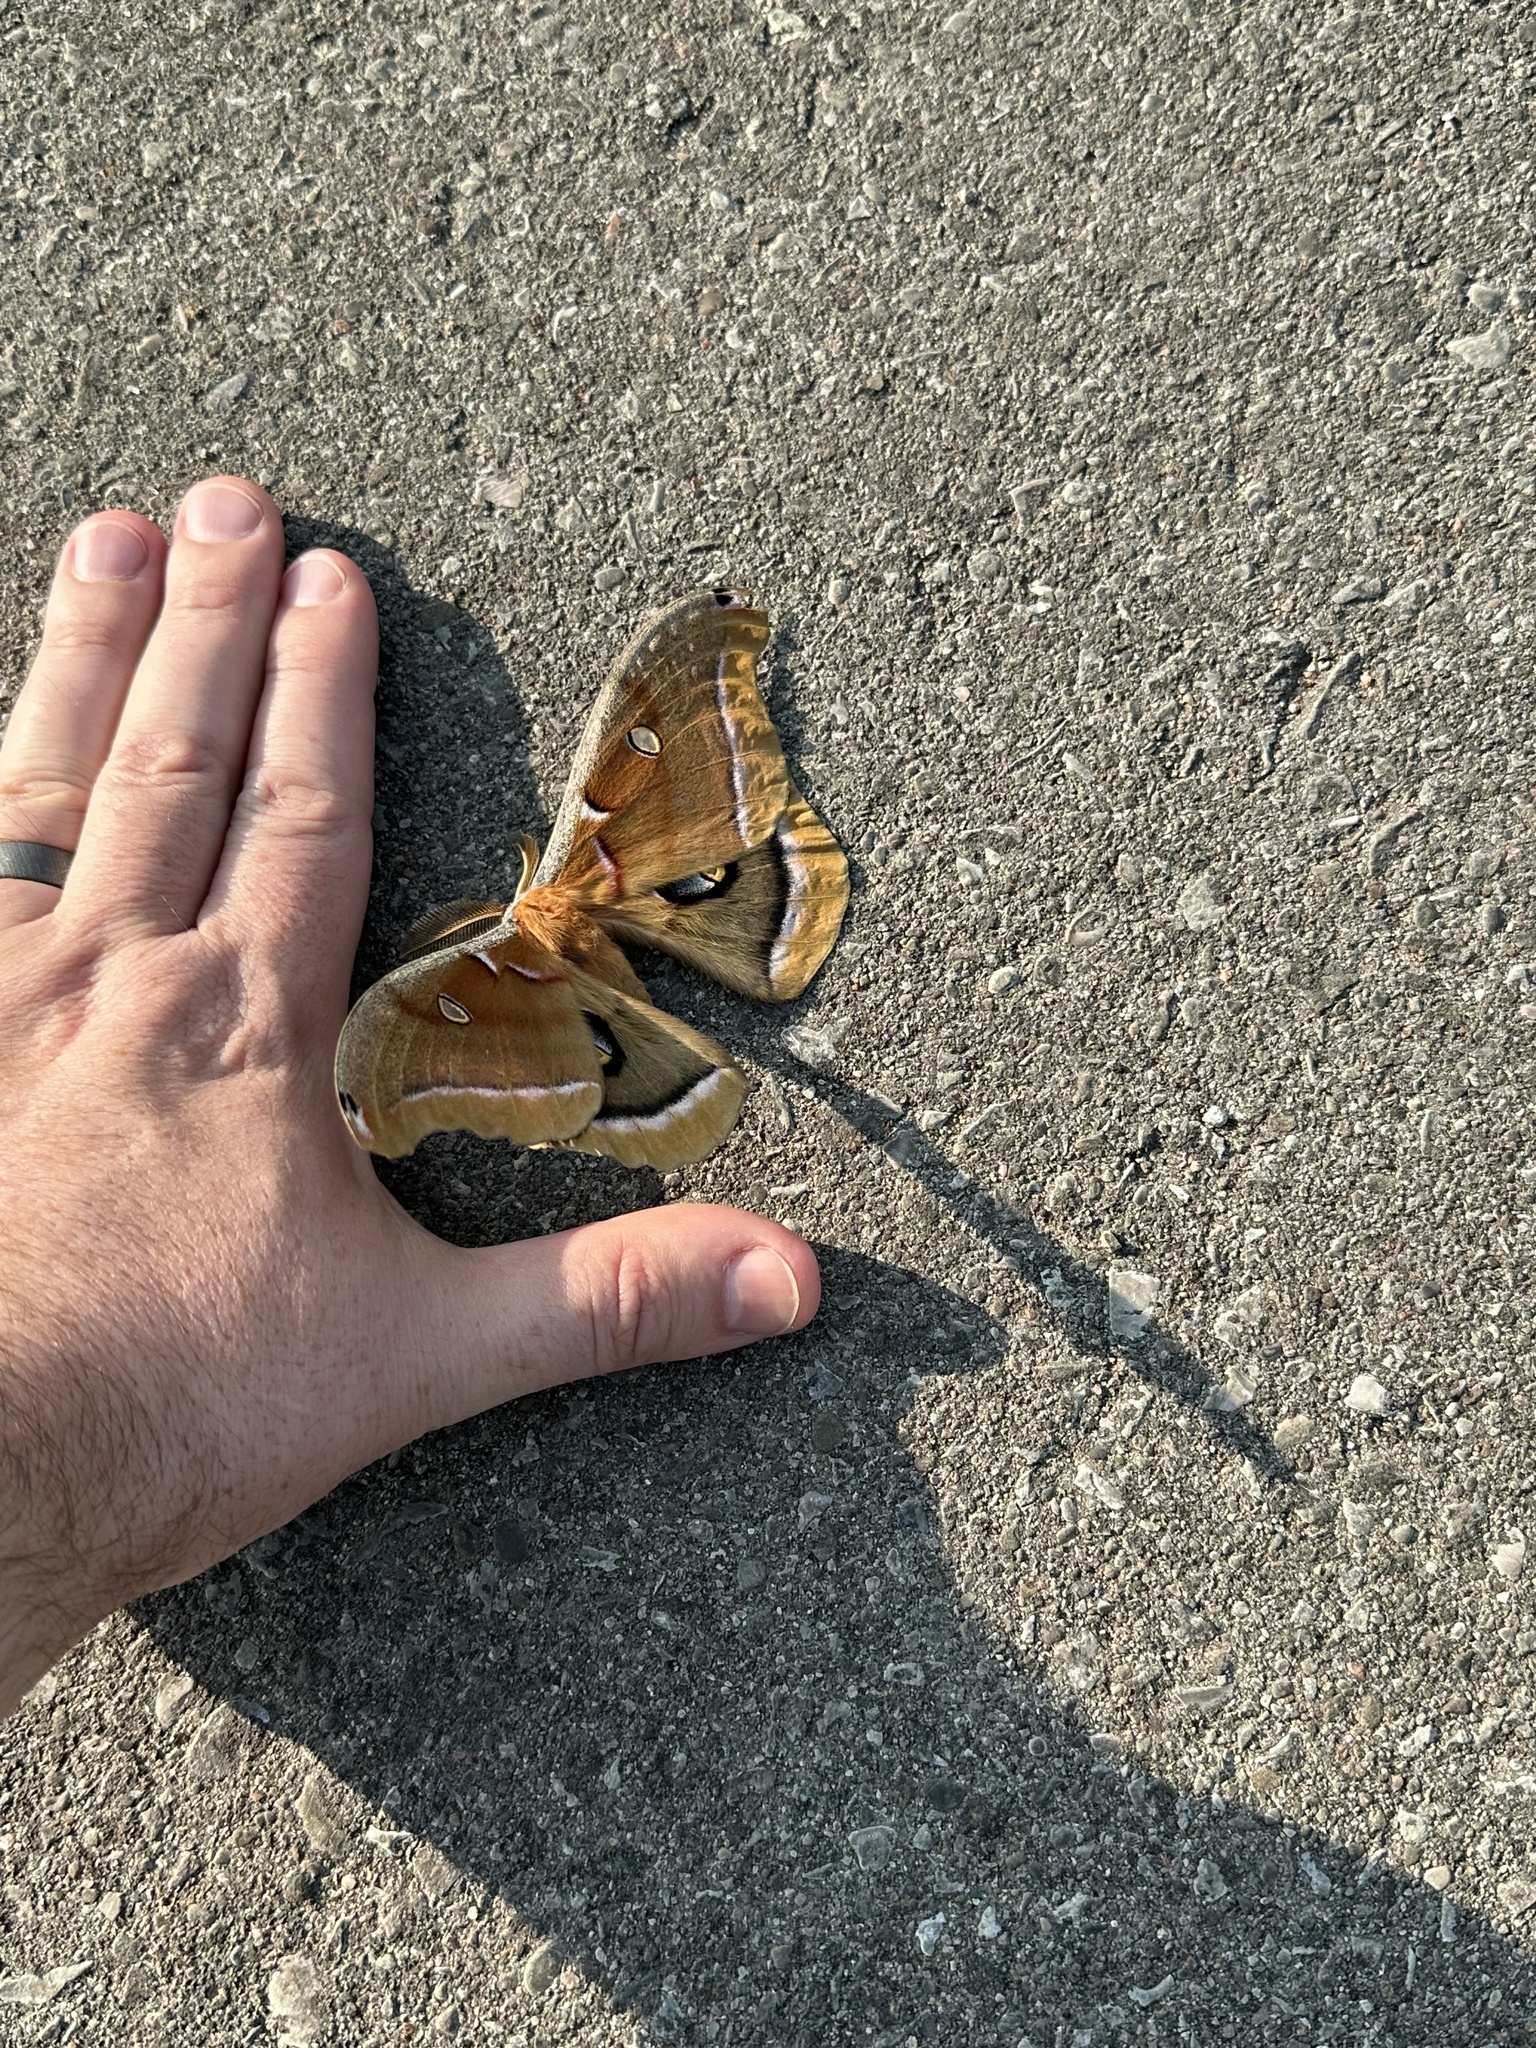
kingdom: Animalia
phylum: Arthropoda
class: Insecta
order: Lepidoptera
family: Saturniidae
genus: Antheraea
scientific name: Antheraea polyphemus
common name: Polyphemus moth
